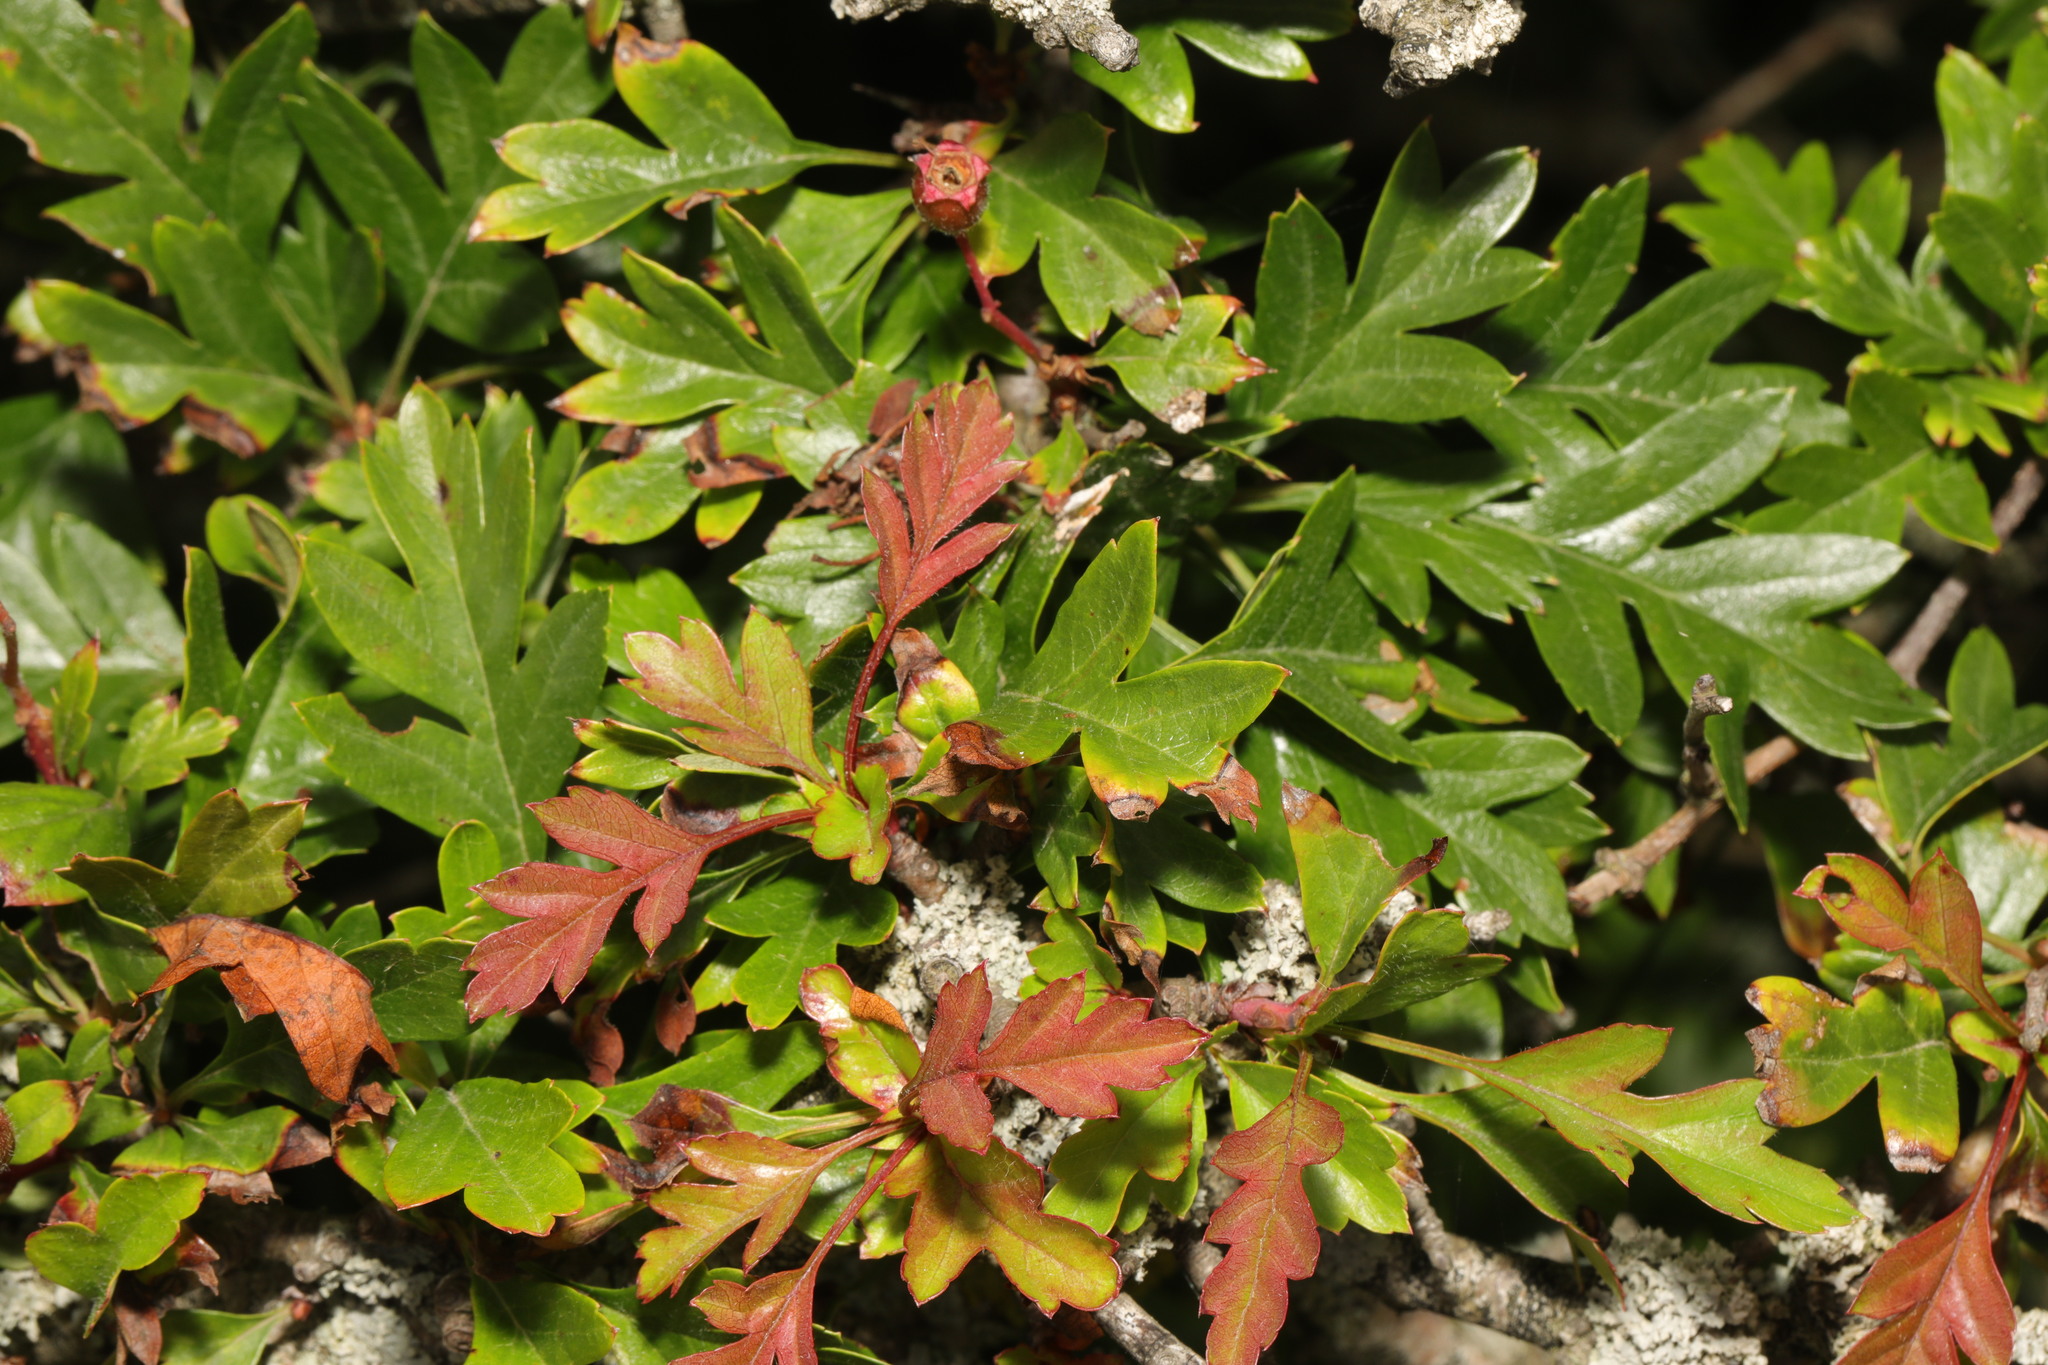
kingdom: Plantae
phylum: Tracheophyta
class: Magnoliopsida
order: Rosales
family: Rosaceae
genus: Crataegus
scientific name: Crataegus monogyna
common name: Hawthorn
